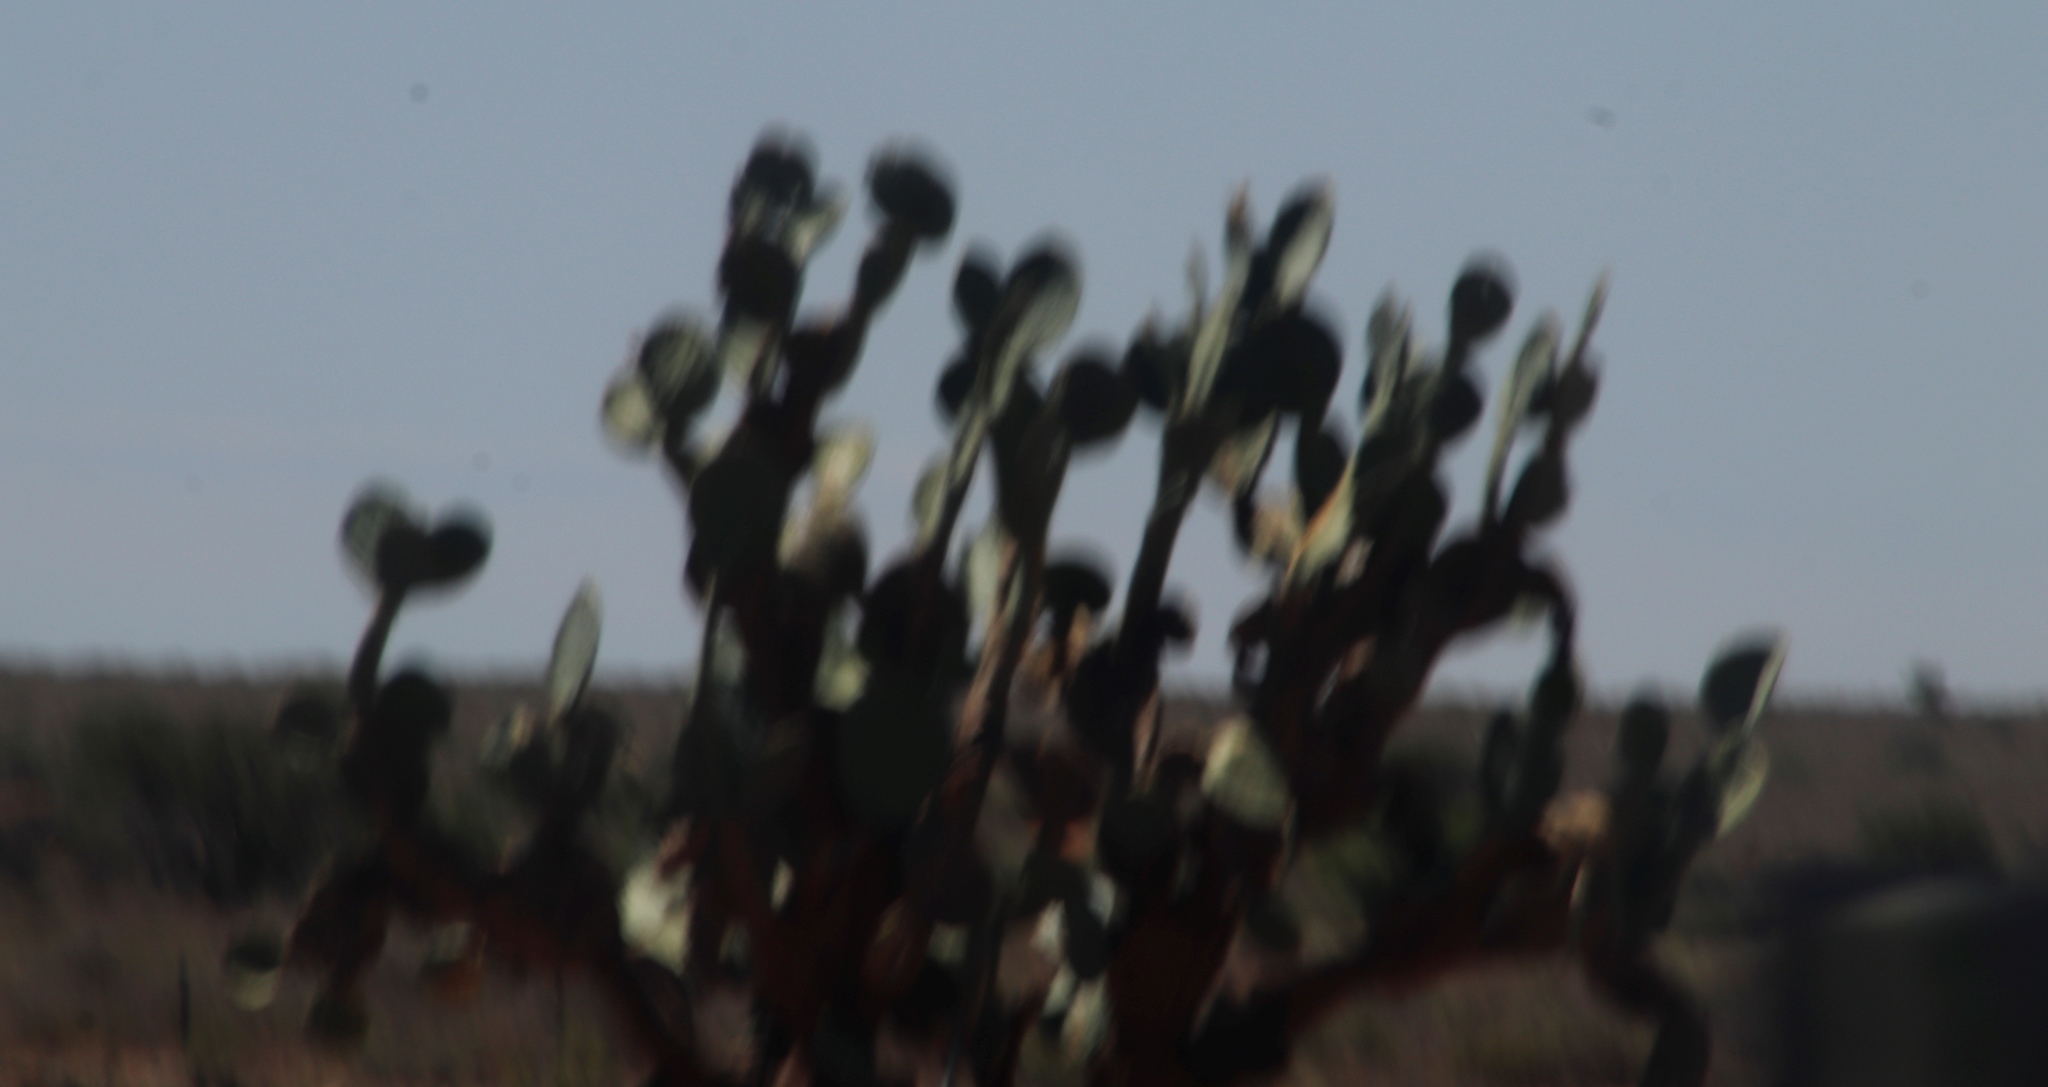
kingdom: Plantae
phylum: Tracheophyta
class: Magnoliopsida
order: Caryophyllales
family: Cactaceae
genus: Opuntia
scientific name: Opuntia ficus-indica
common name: Barbary fig
